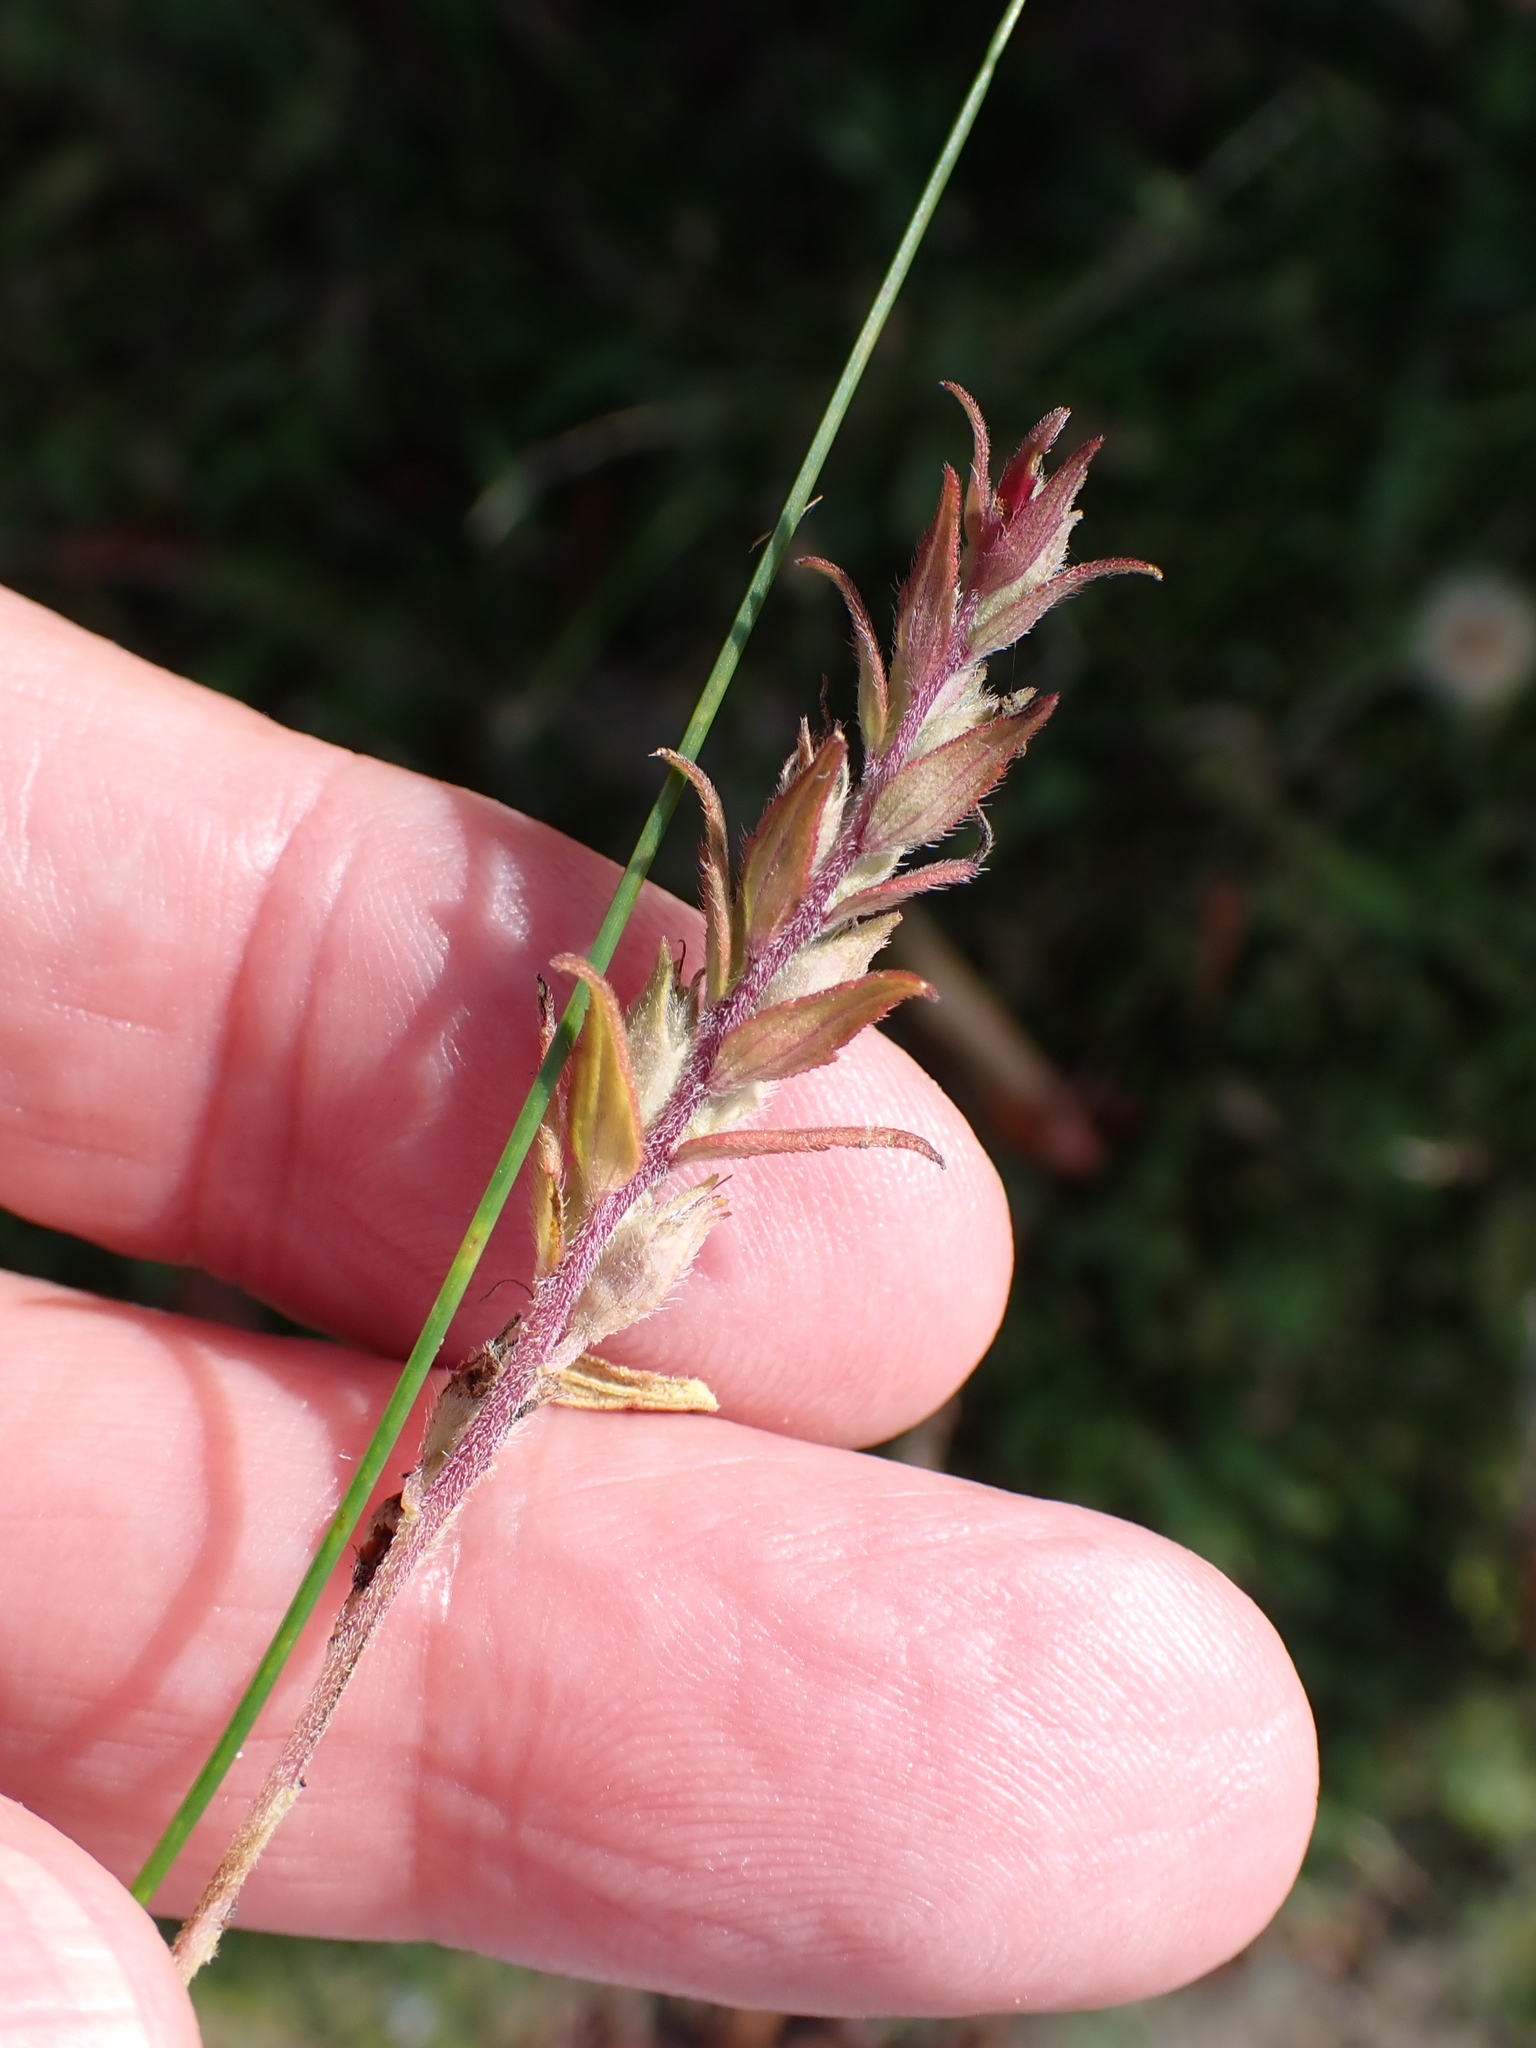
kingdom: Plantae
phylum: Tracheophyta
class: Magnoliopsida
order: Lamiales
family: Orobanchaceae
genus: Odontites
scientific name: Odontites vulgaris
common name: Broomrape
